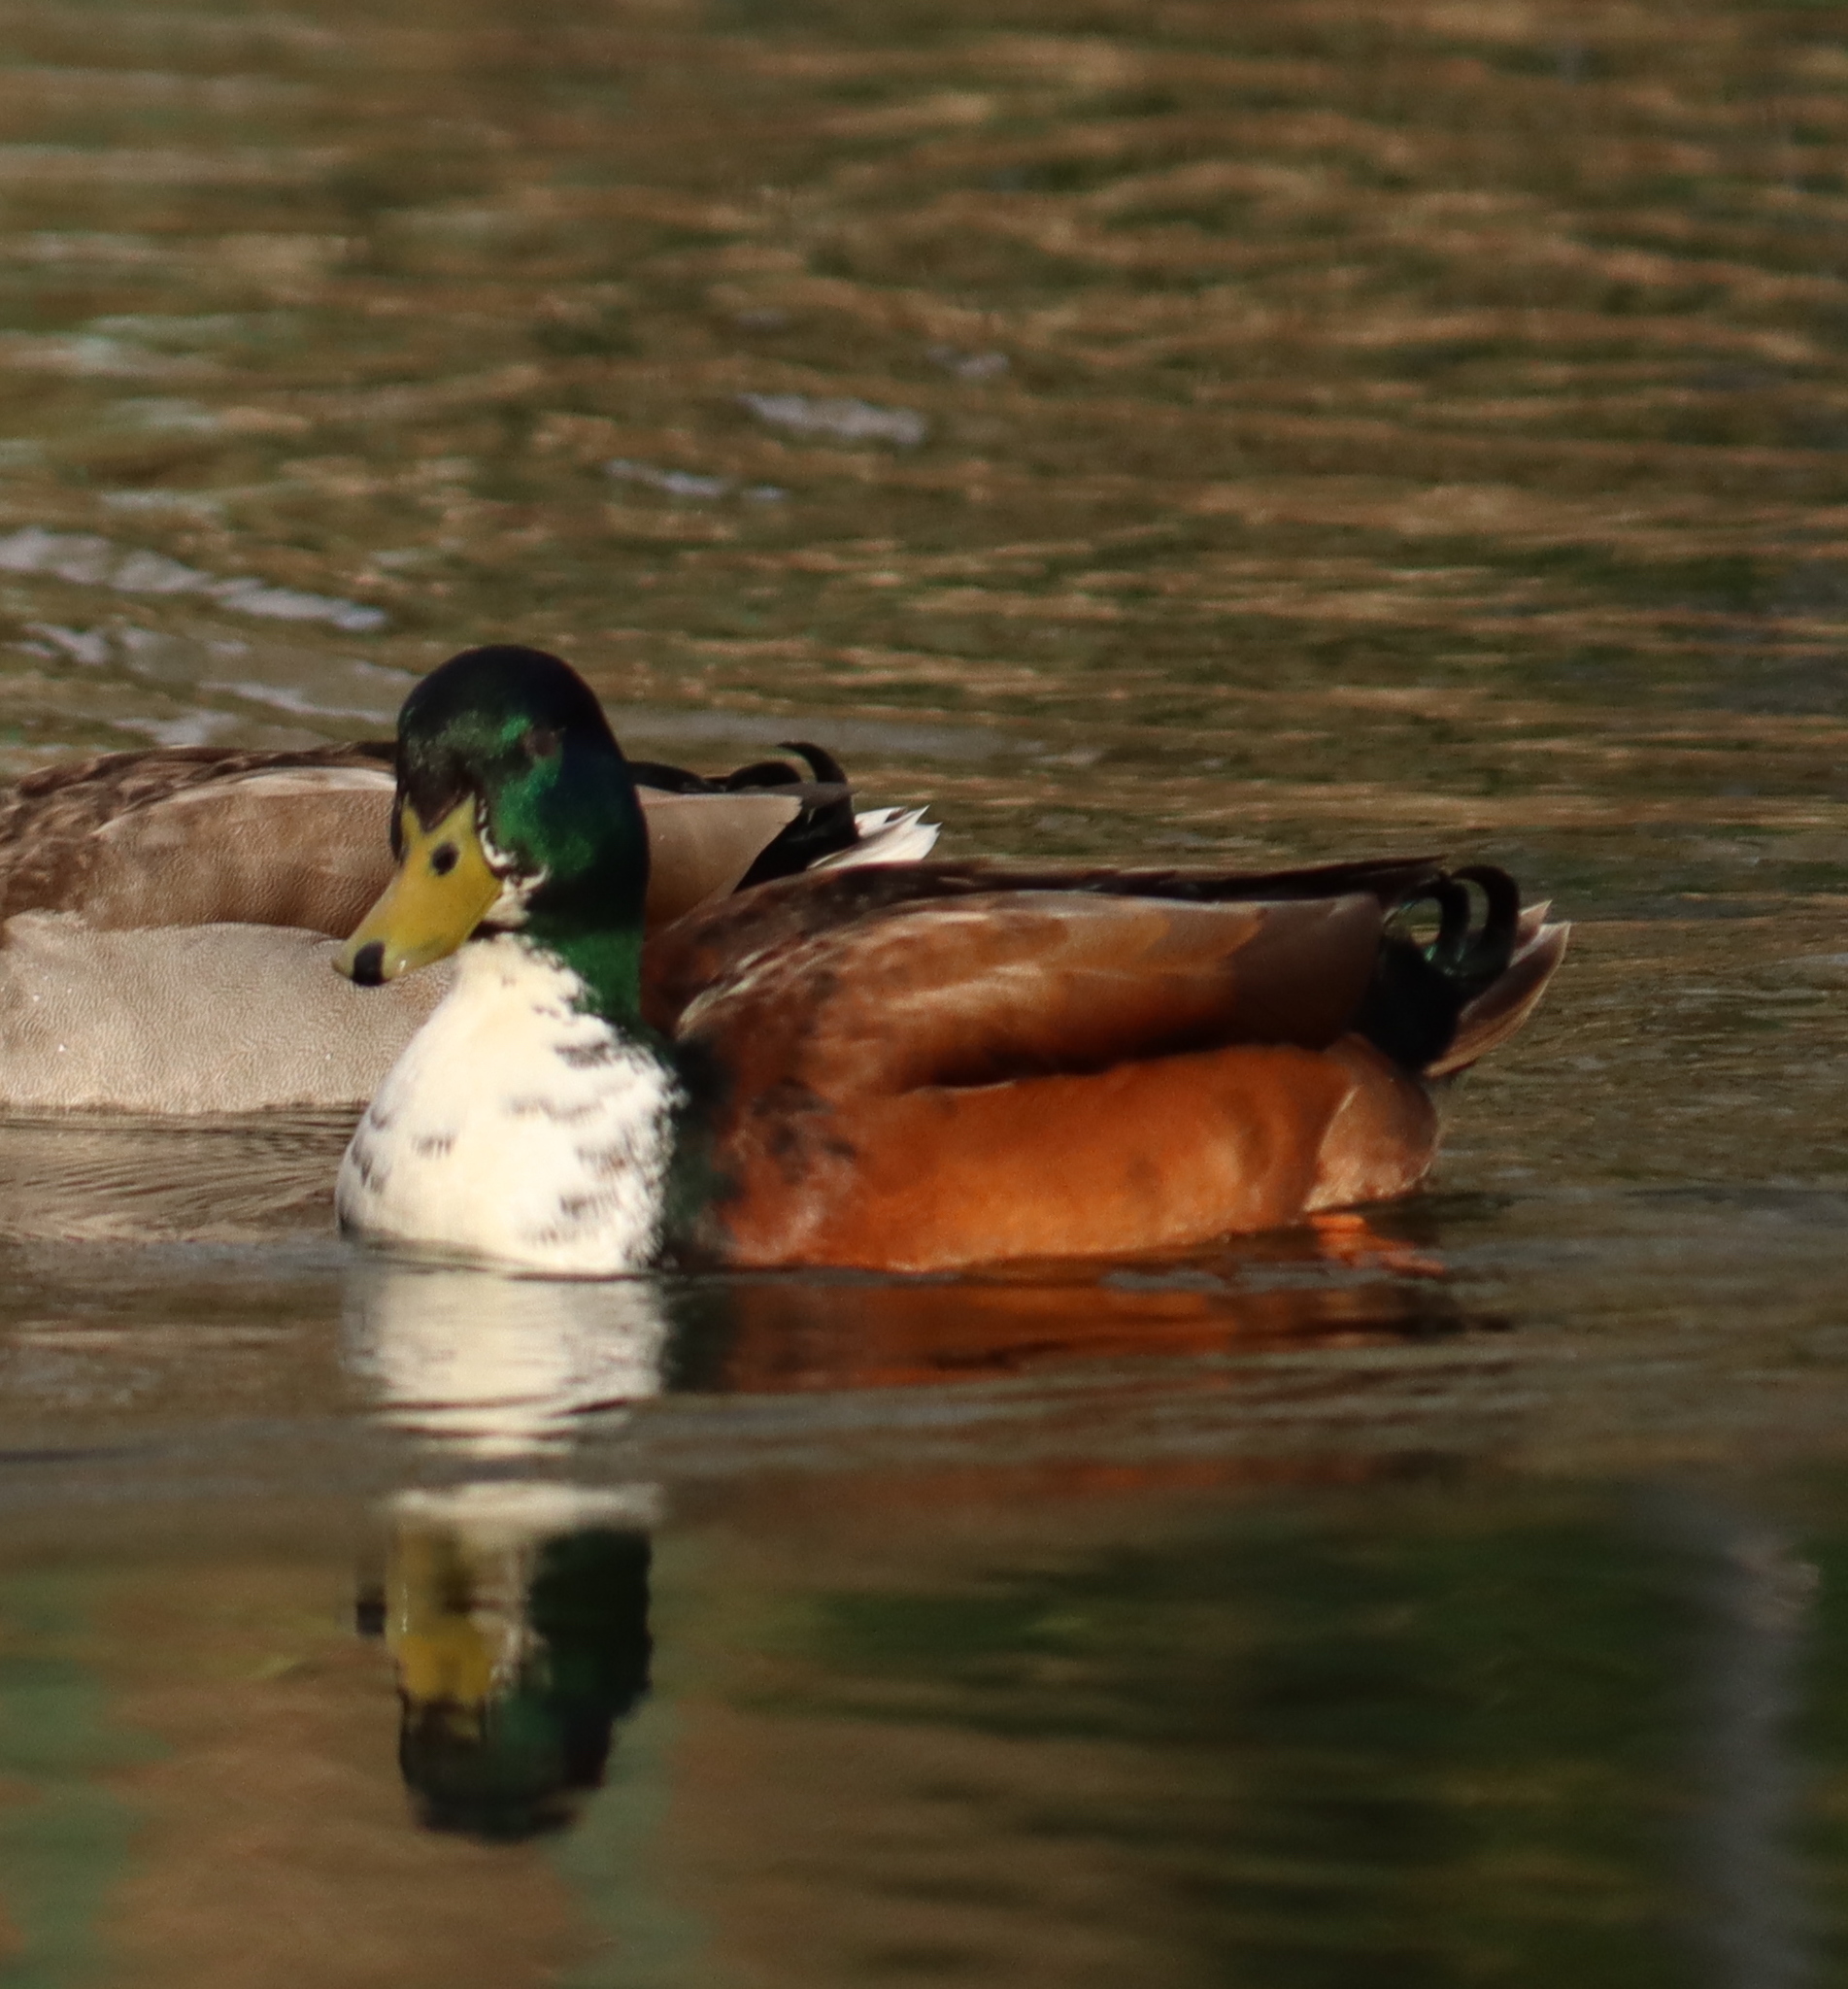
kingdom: Animalia
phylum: Chordata
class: Aves
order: Anseriformes
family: Anatidae
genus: Anas
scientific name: Anas platyrhynchos
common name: Mallard
